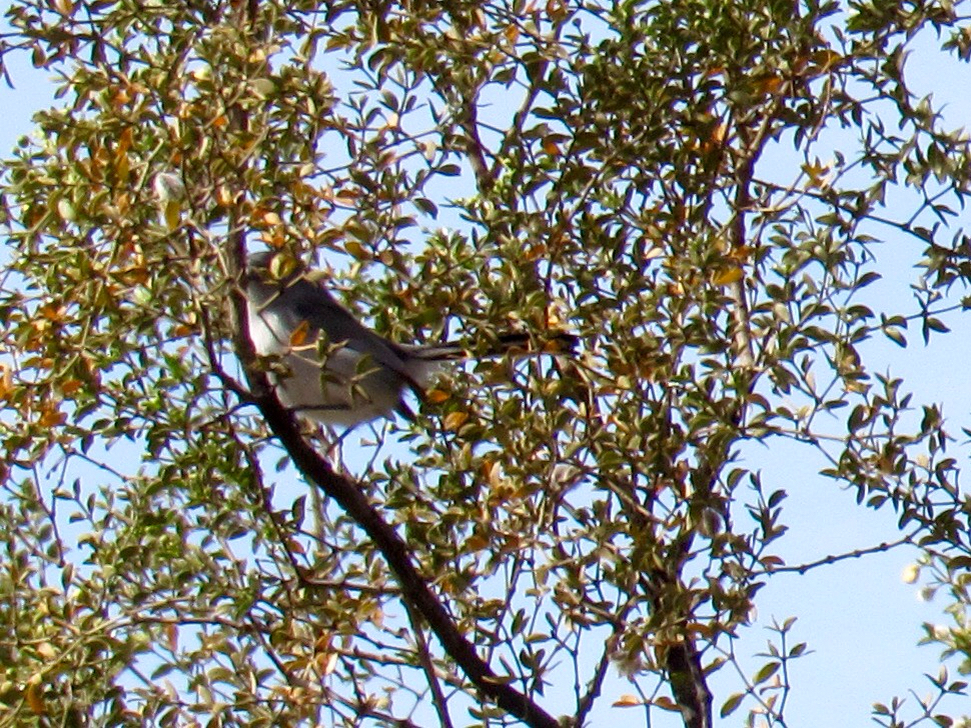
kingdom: Animalia
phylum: Chordata
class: Aves
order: Passeriformes
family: Polioptilidae
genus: Polioptila
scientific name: Polioptila caerulea
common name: Blue-gray gnatcatcher
